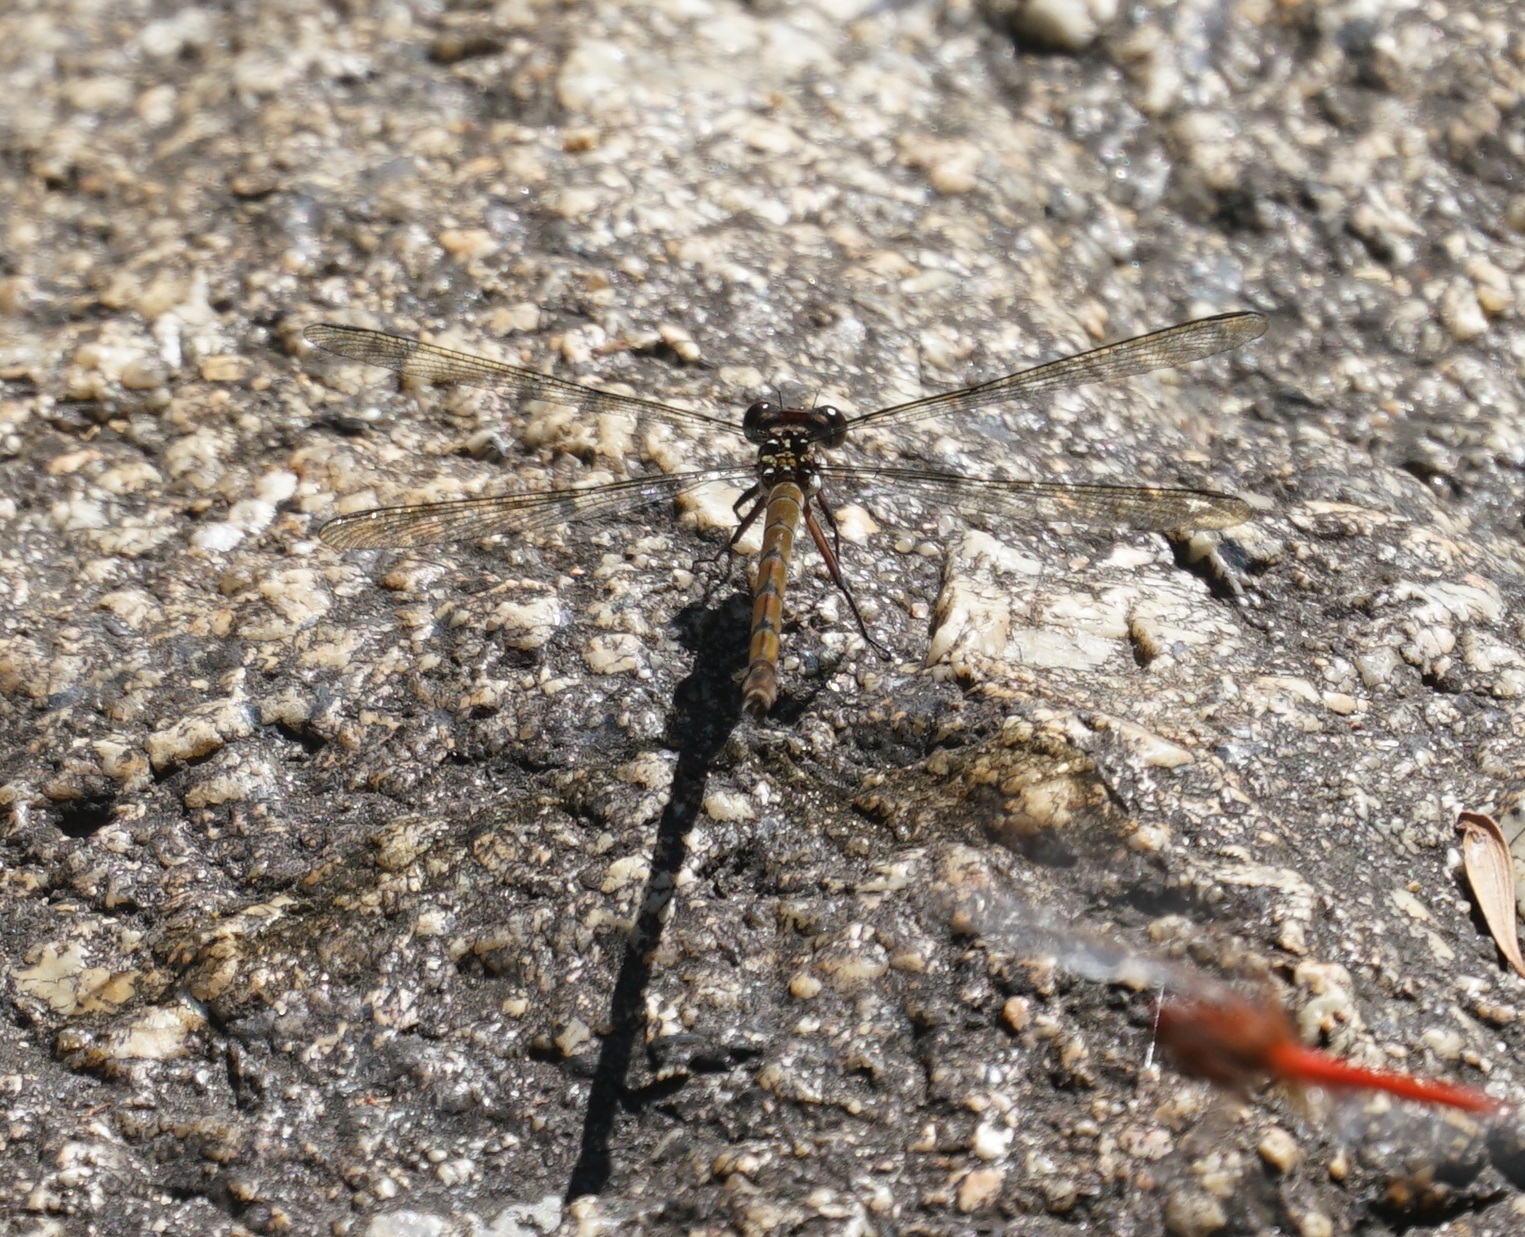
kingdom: Animalia
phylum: Arthropoda
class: Insecta
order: Odonata
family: Lestoideidae
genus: Diphlebia
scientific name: Diphlebia euphoeoides
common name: Tropical rockmaster
